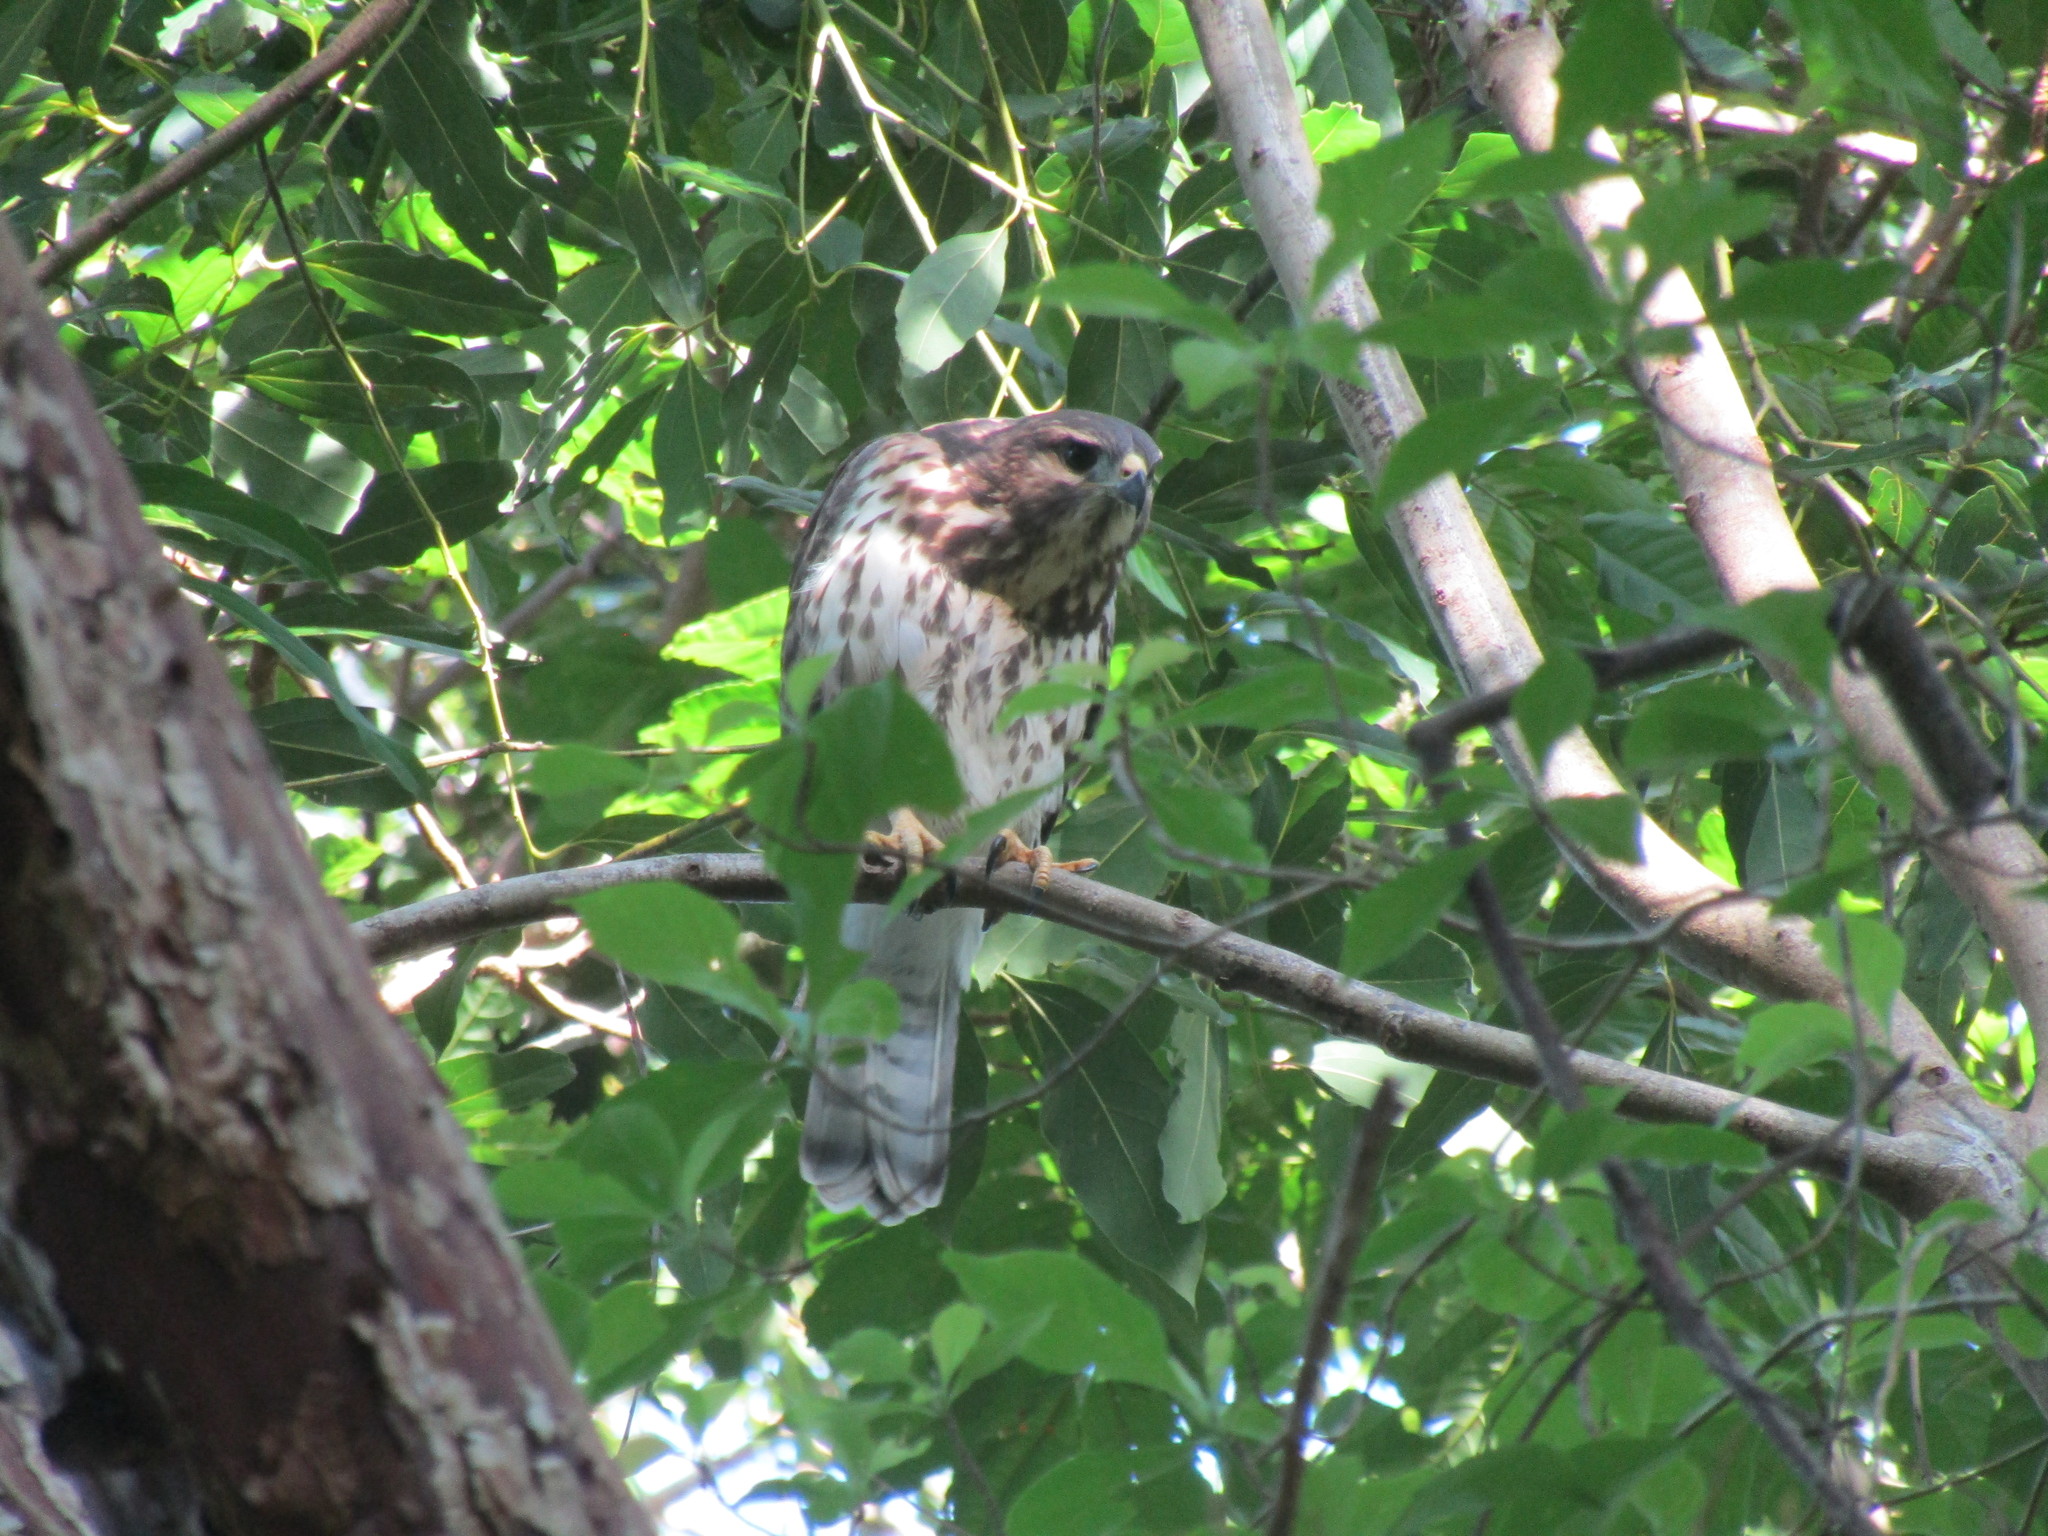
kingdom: Animalia
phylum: Chordata
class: Aves
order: Accipitriformes
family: Accipitridae
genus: Buteo
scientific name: Buteo nitidus
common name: Grey-lined hawk
